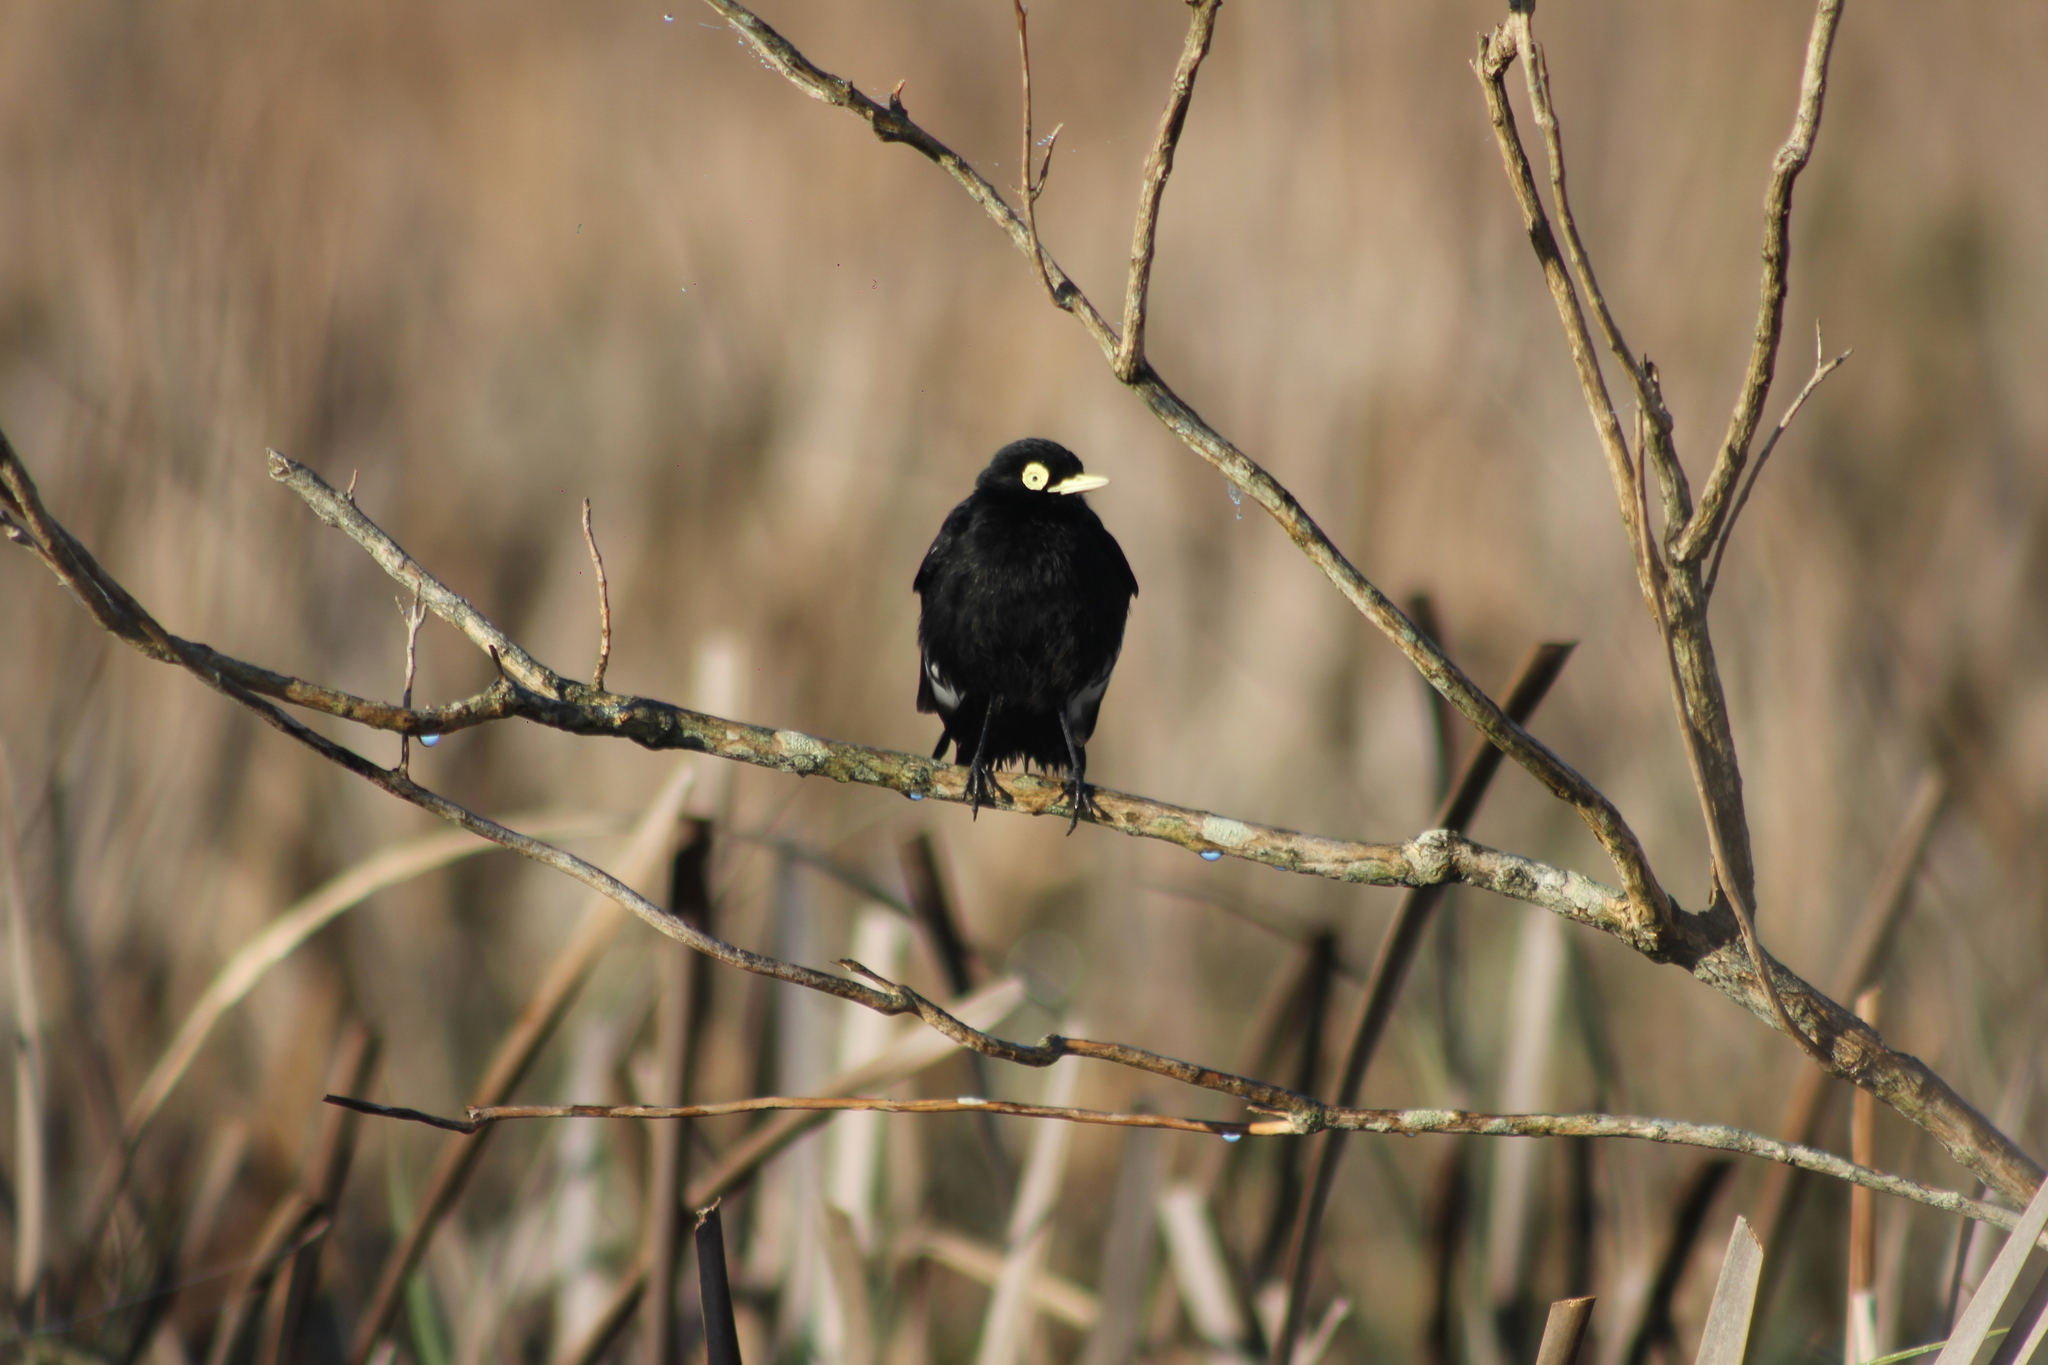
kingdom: Animalia
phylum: Chordata
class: Aves
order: Passeriformes
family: Tyrannidae
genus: Hymenops
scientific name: Hymenops perspicillatus
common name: Spectacled tyrant
